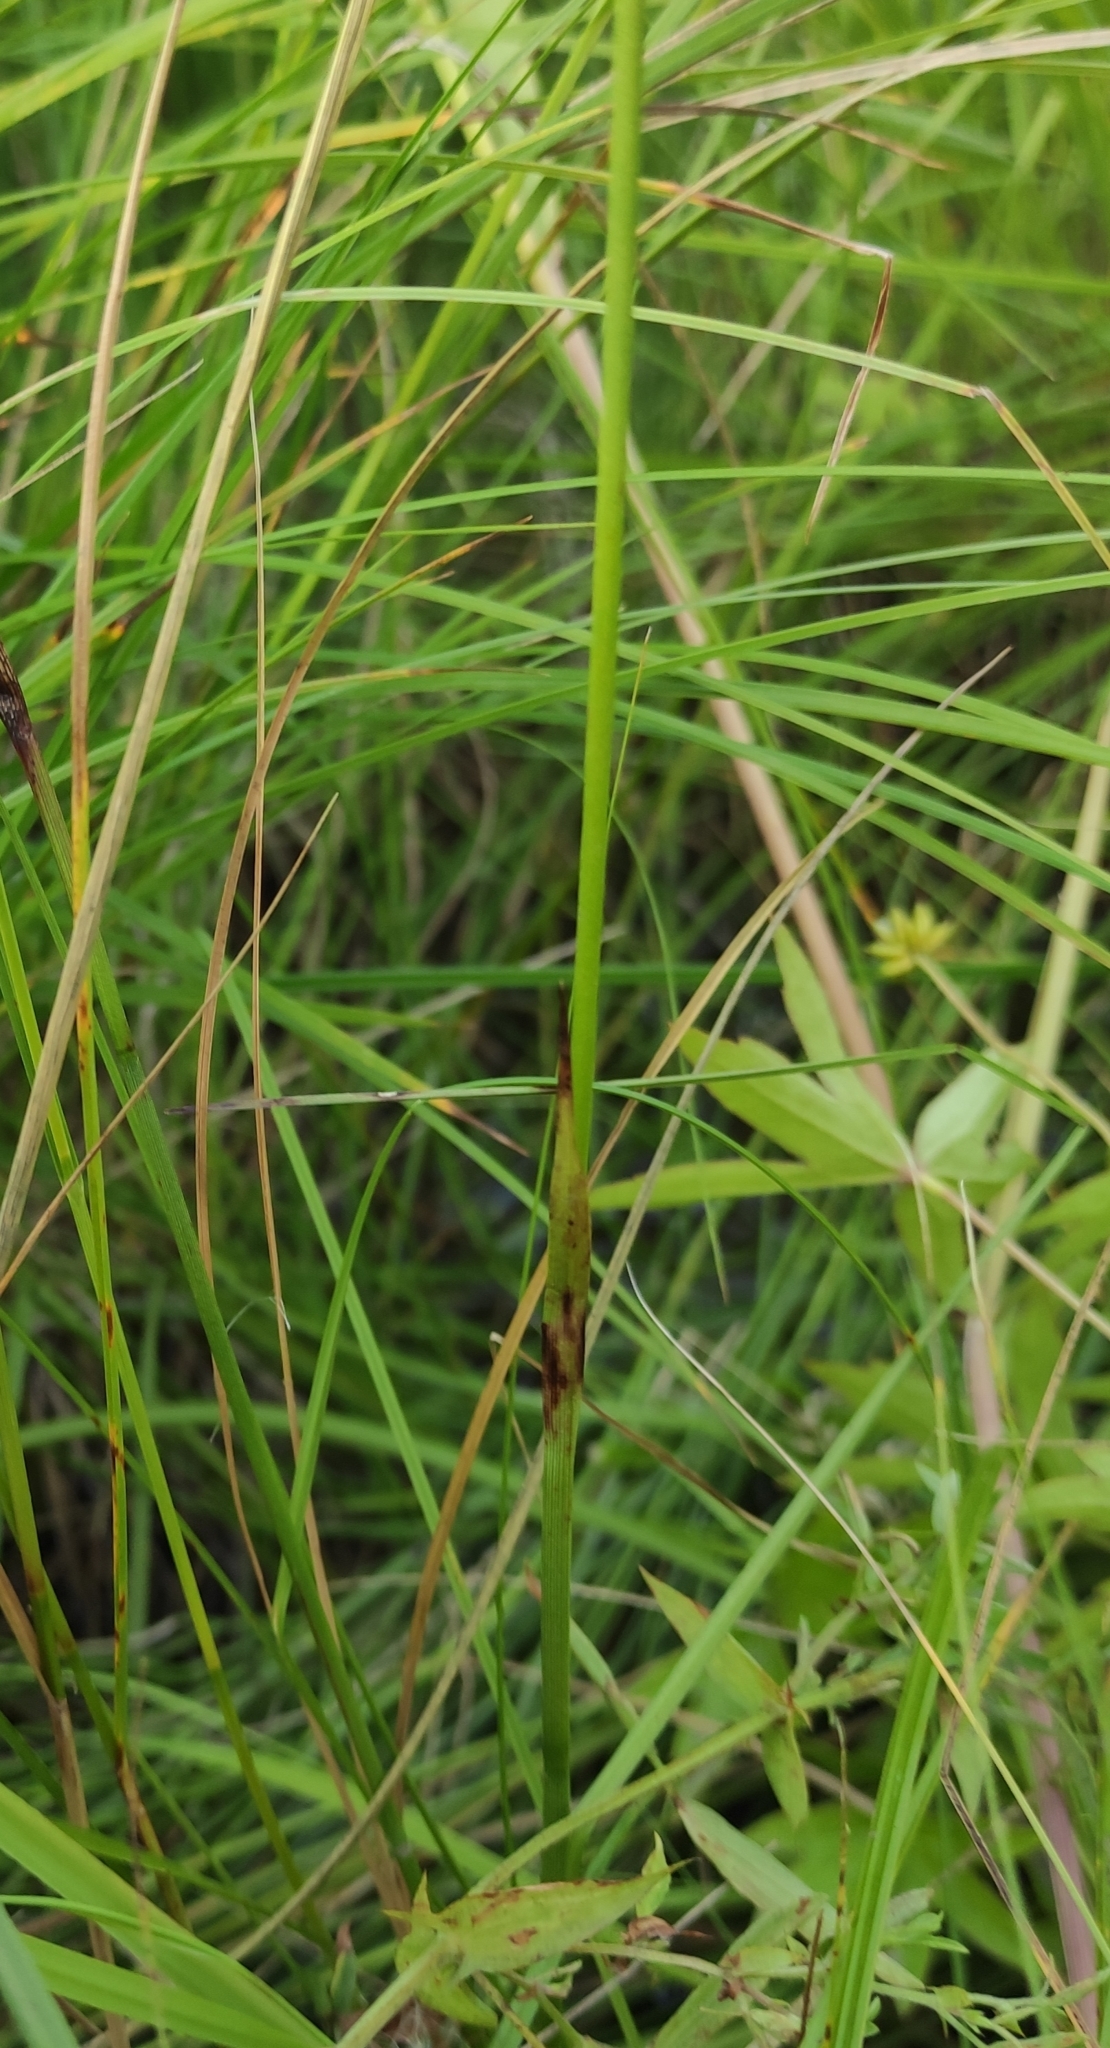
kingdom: Plantae
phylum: Tracheophyta
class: Liliopsida
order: Poales
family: Cyperaceae
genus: Eriophorum
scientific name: Eriophorum angustifolium
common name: Common cottongrass
